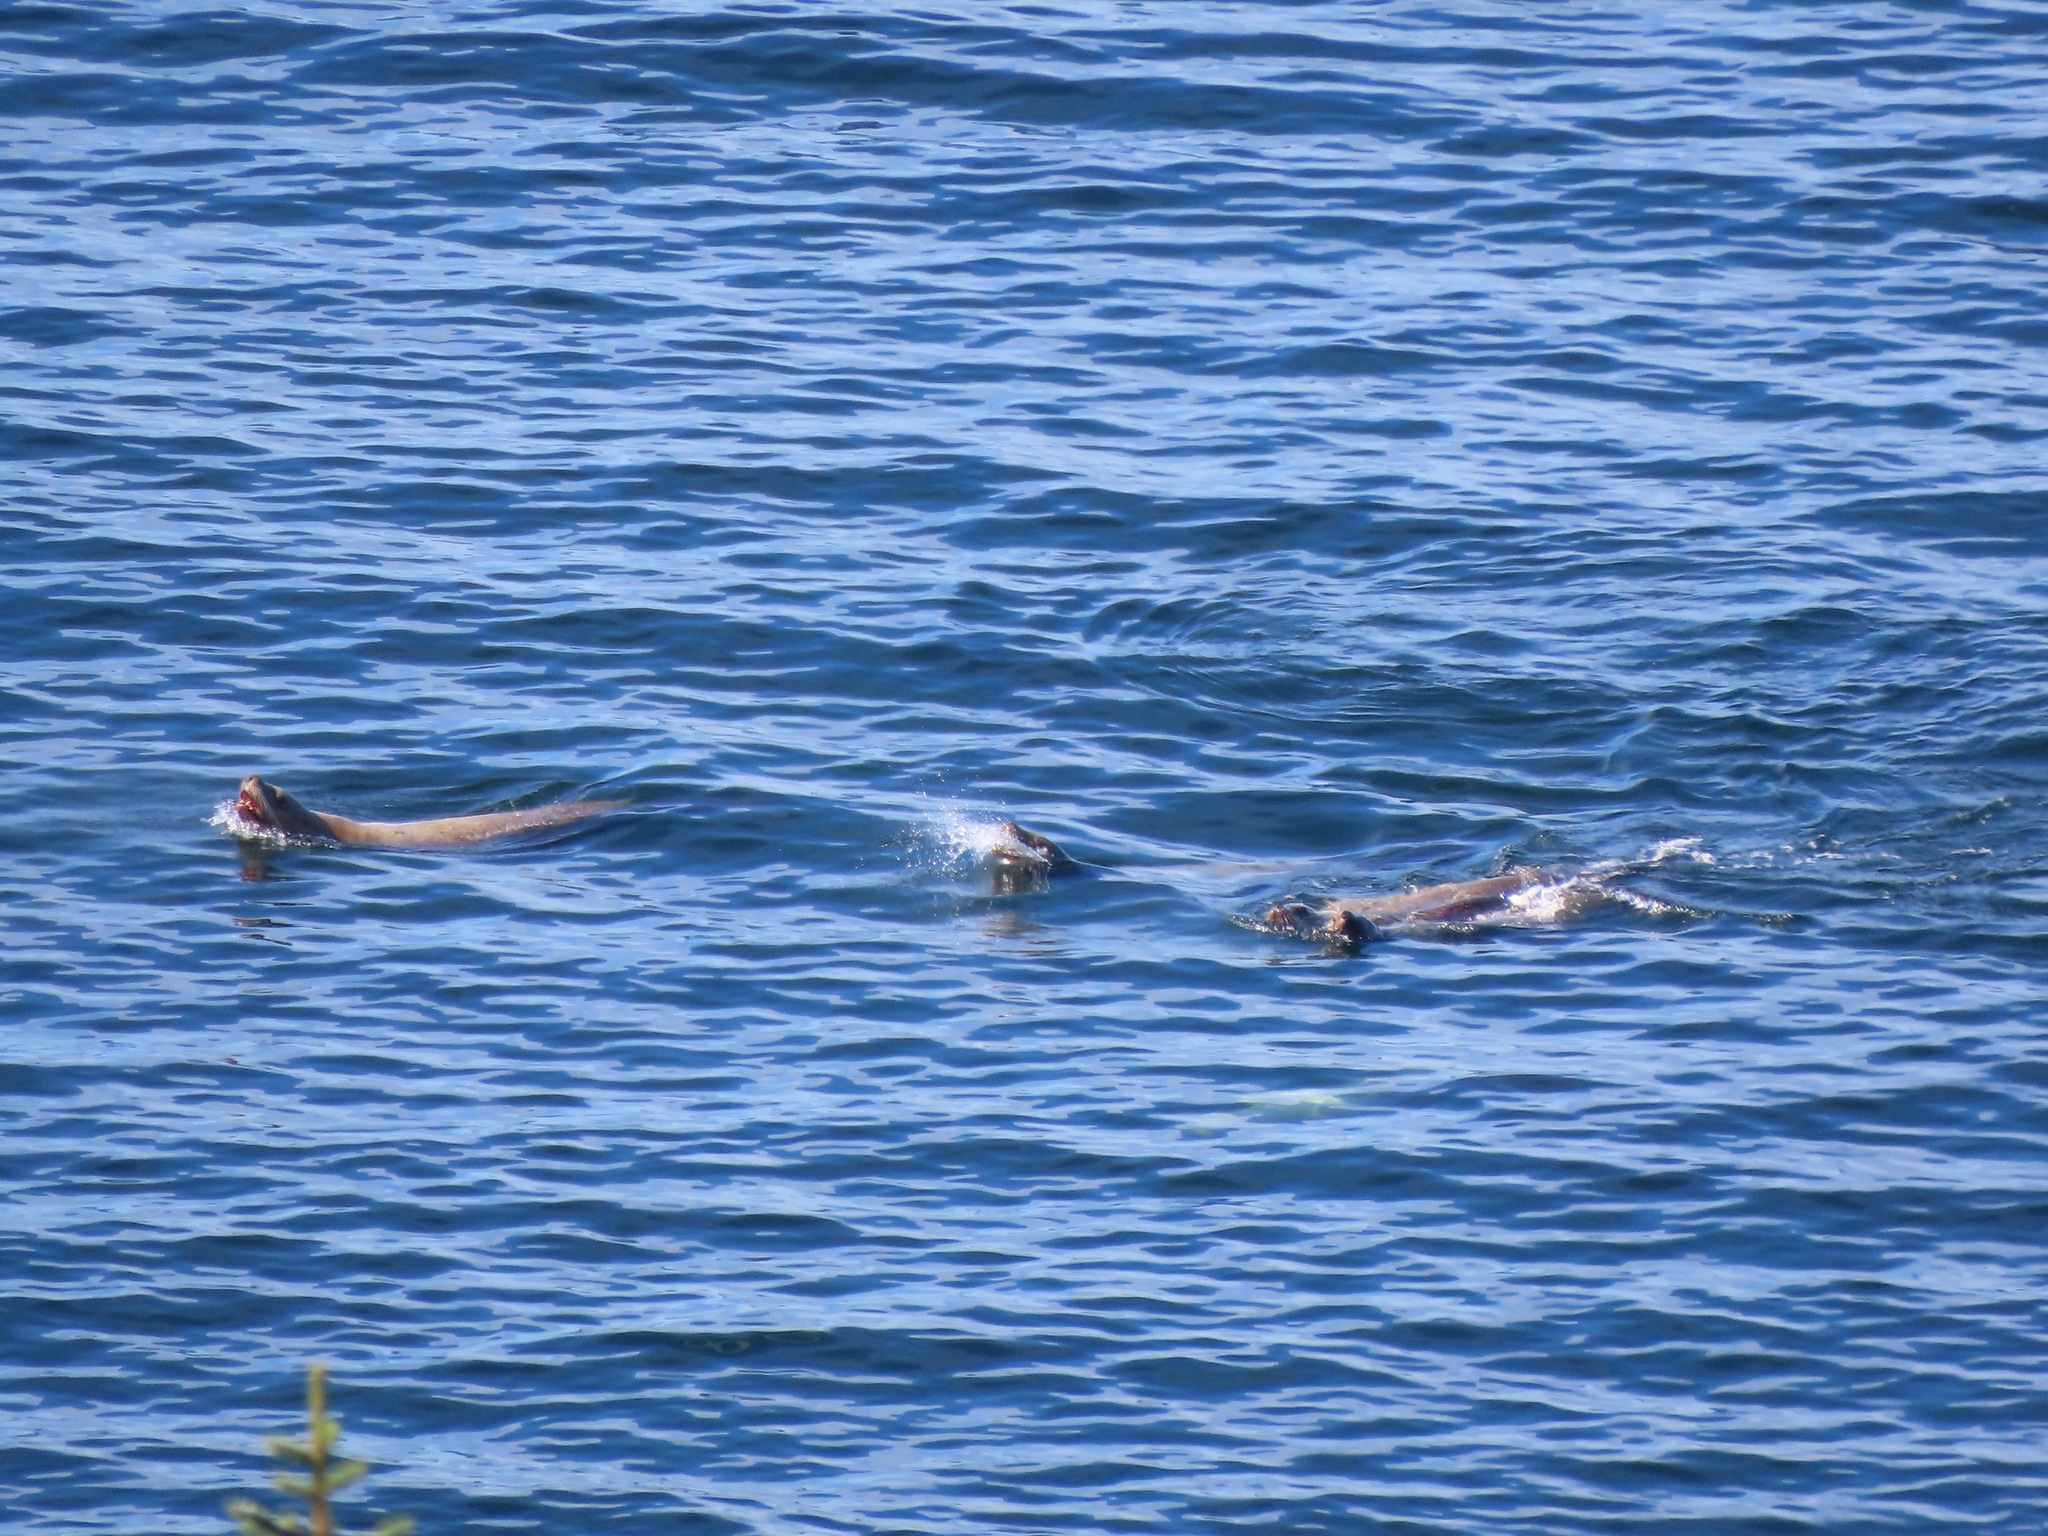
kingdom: Animalia
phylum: Chordata
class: Mammalia
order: Carnivora
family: Otariidae
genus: Zalophus
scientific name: Zalophus californianus
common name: California sea lion
